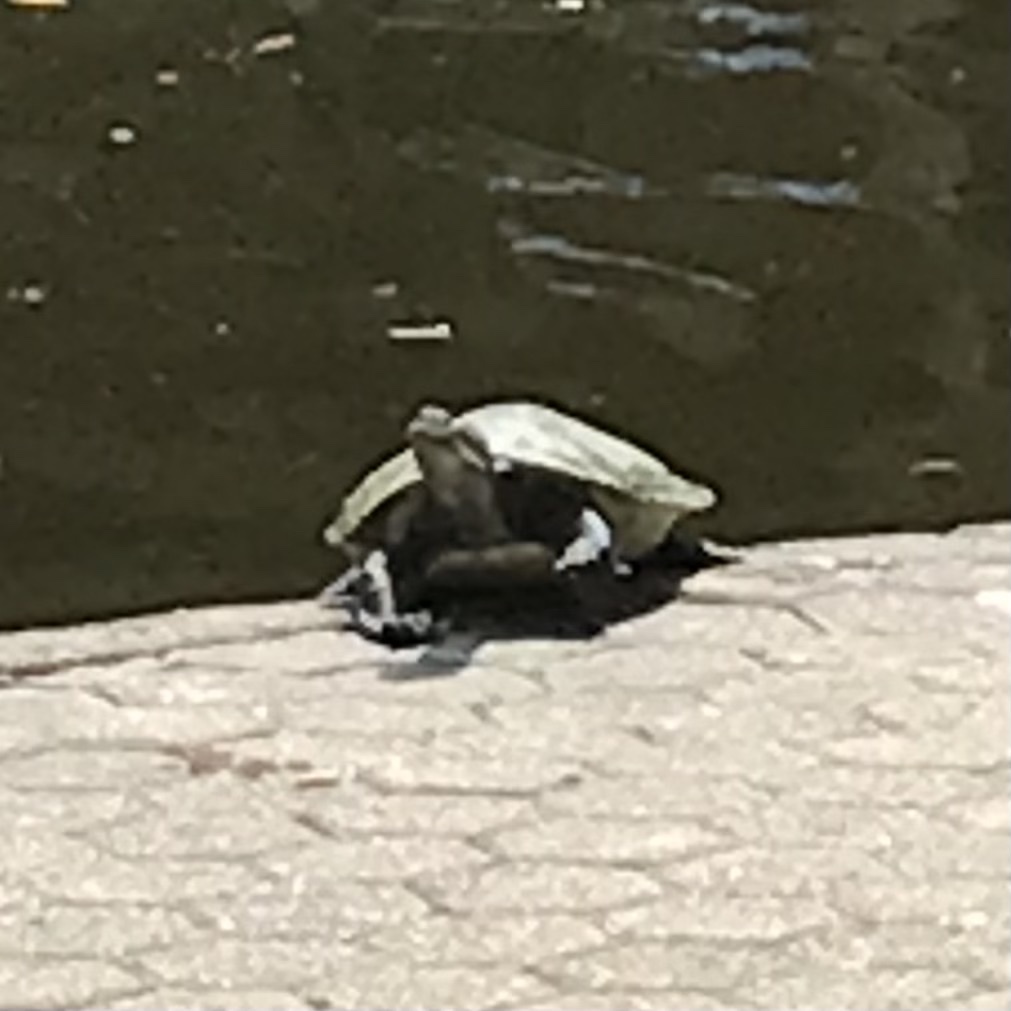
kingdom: Animalia
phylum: Chordata
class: Testudines
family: Chelidae
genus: Emydura
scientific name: Emydura macquarii
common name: Murray river turtle
